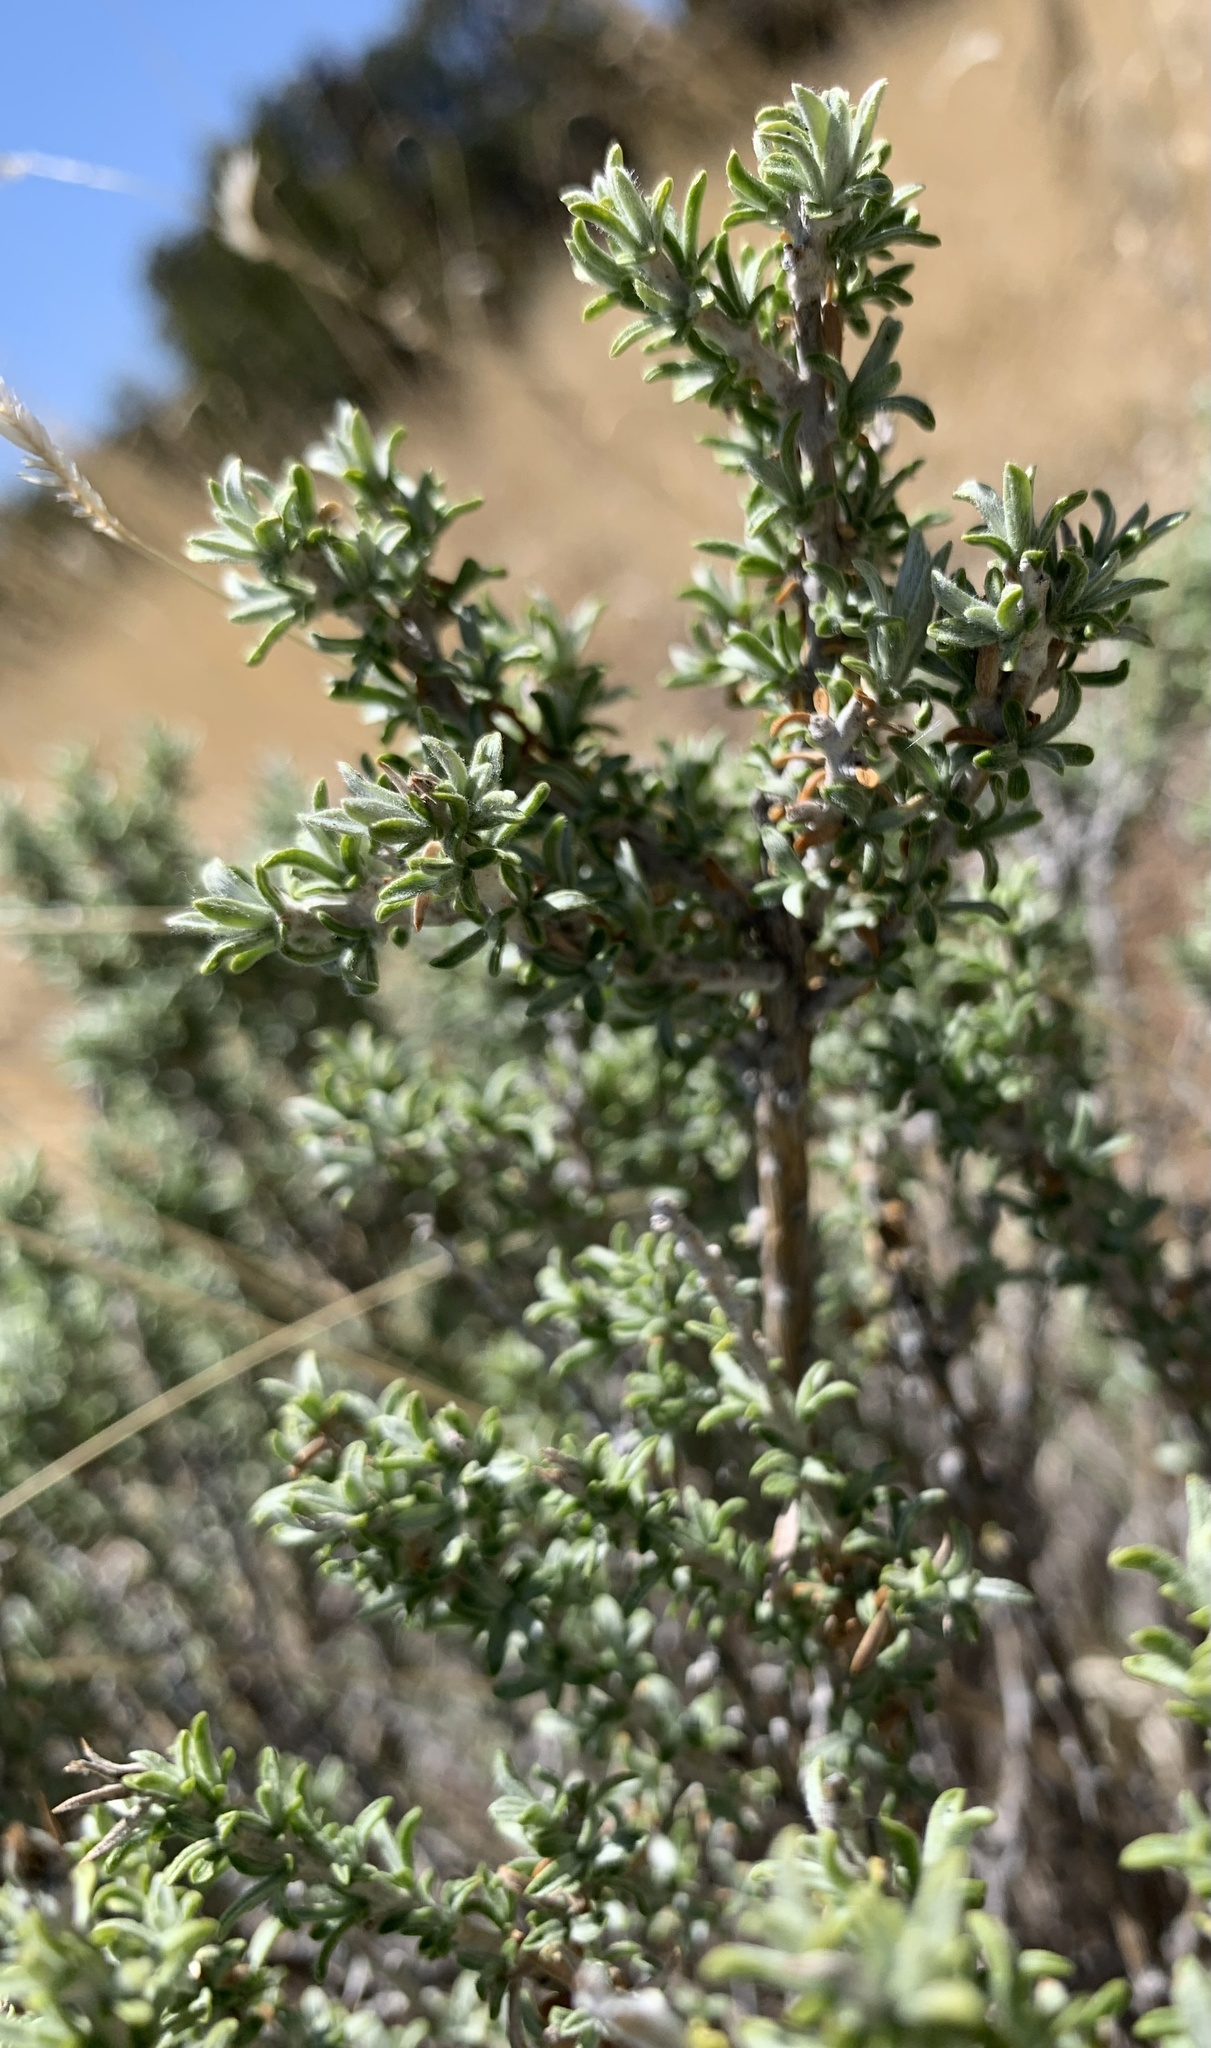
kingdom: Plantae
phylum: Tracheophyta
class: Magnoliopsida
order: Asterales
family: Asteraceae
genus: Tetradymia
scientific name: Tetradymia canescens
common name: Spineless horsebrush
